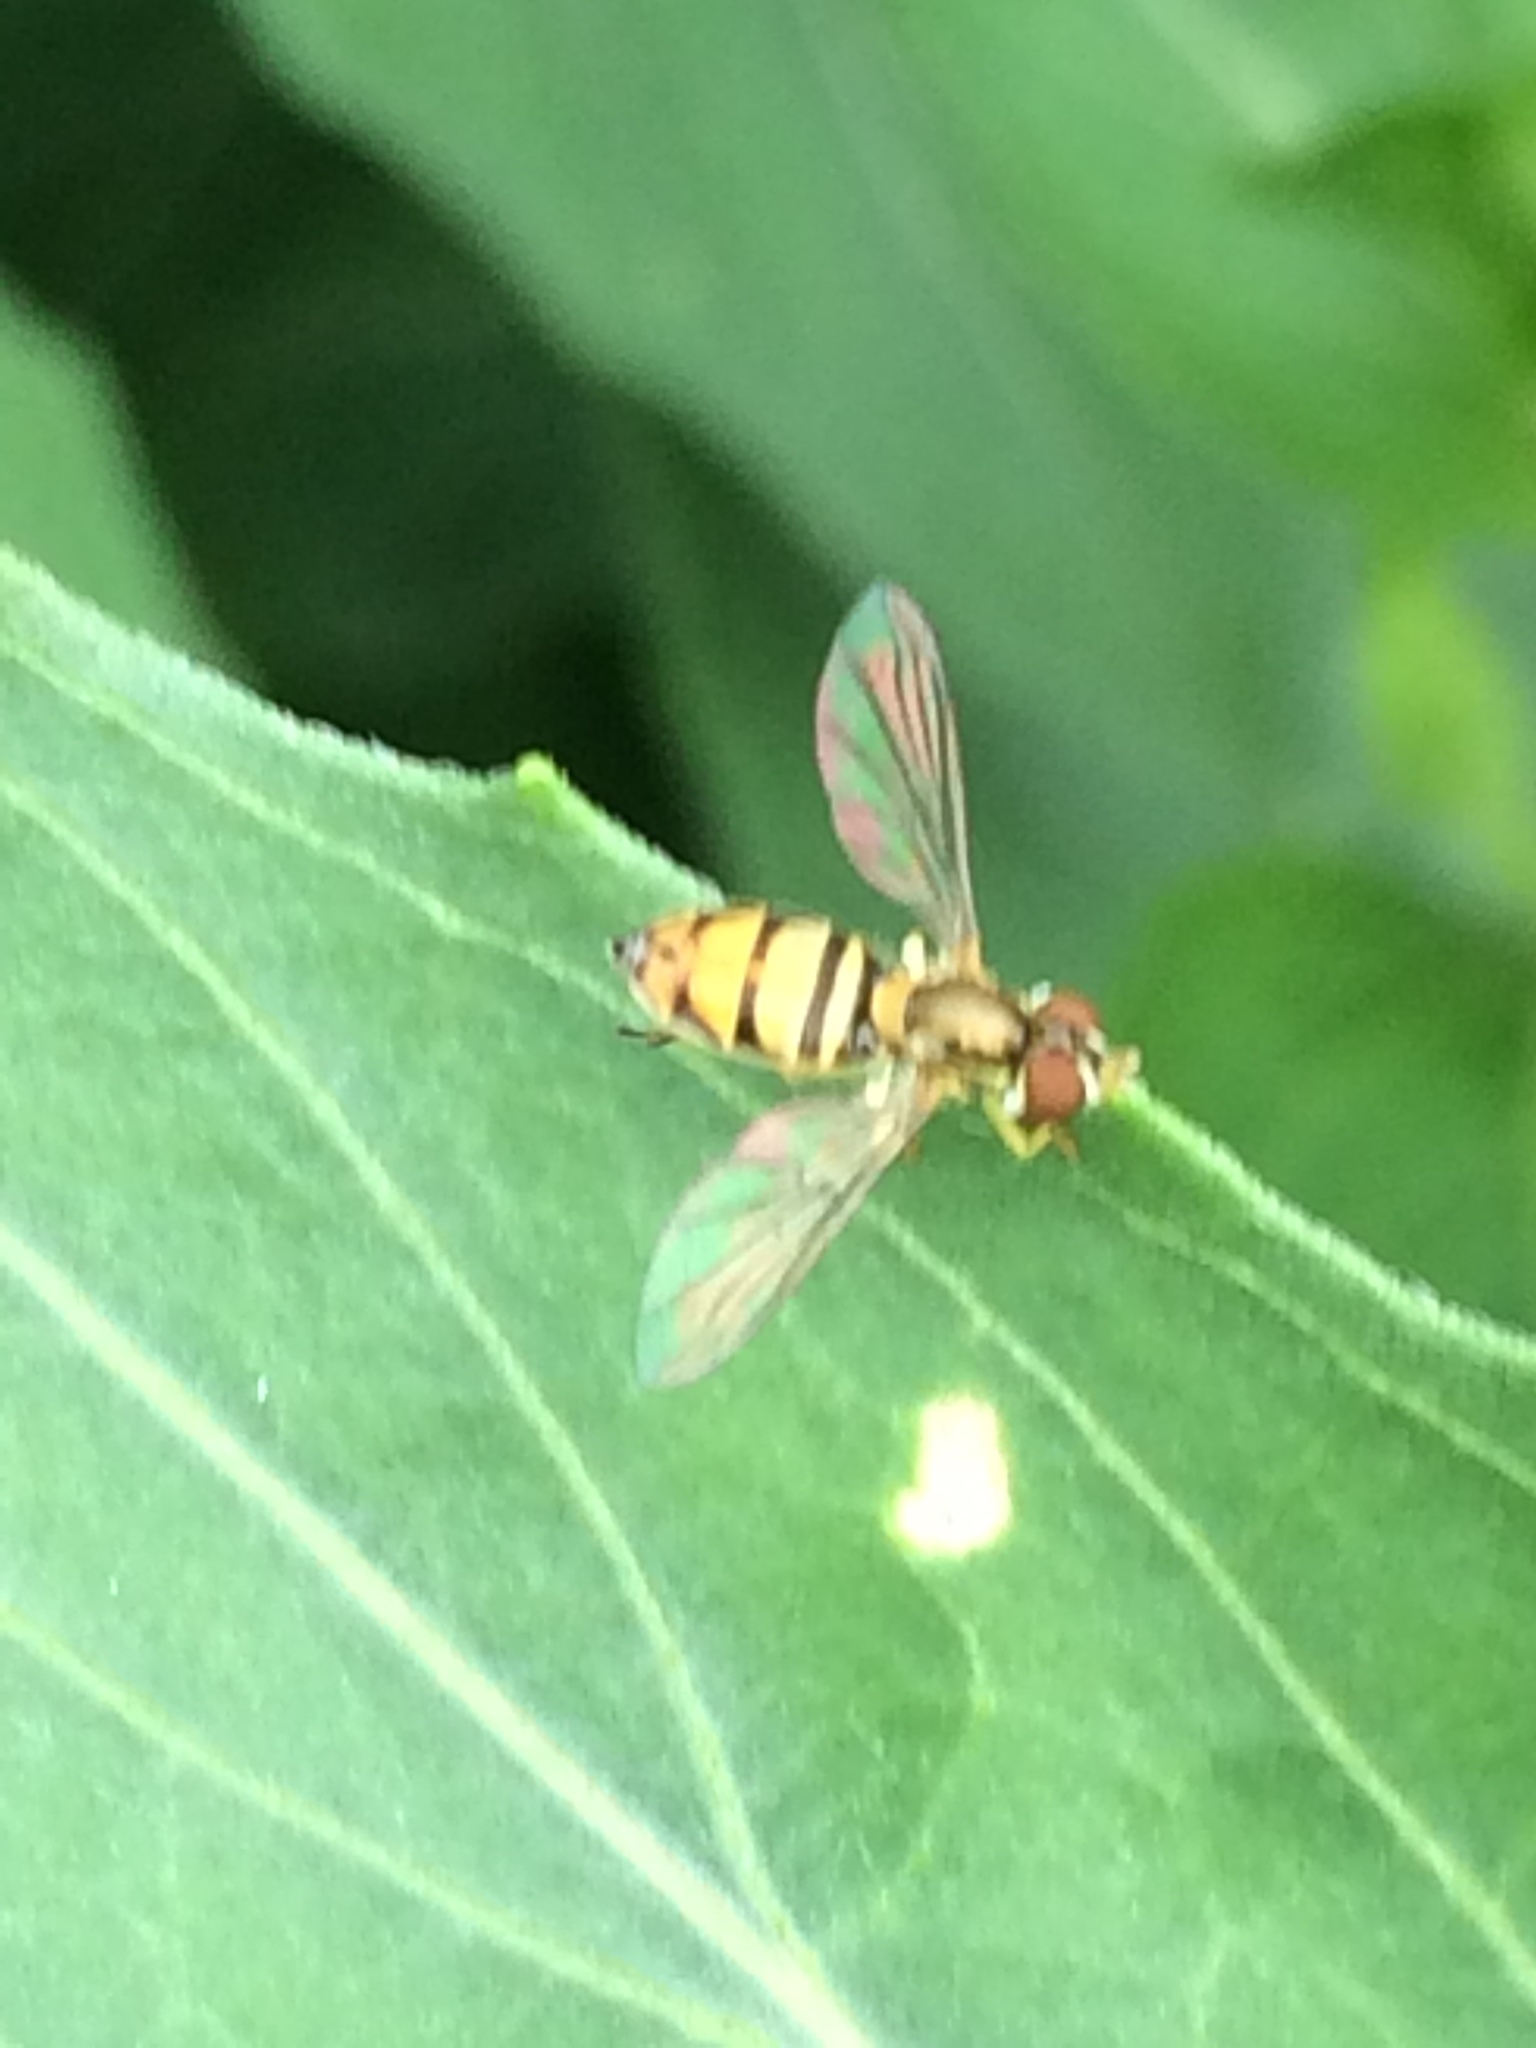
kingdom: Animalia
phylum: Arthropoda
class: Insecta
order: Diptera
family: Syrphidae
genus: Toxomerus
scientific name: Toxomerus marginatus
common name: Syrphid fly
